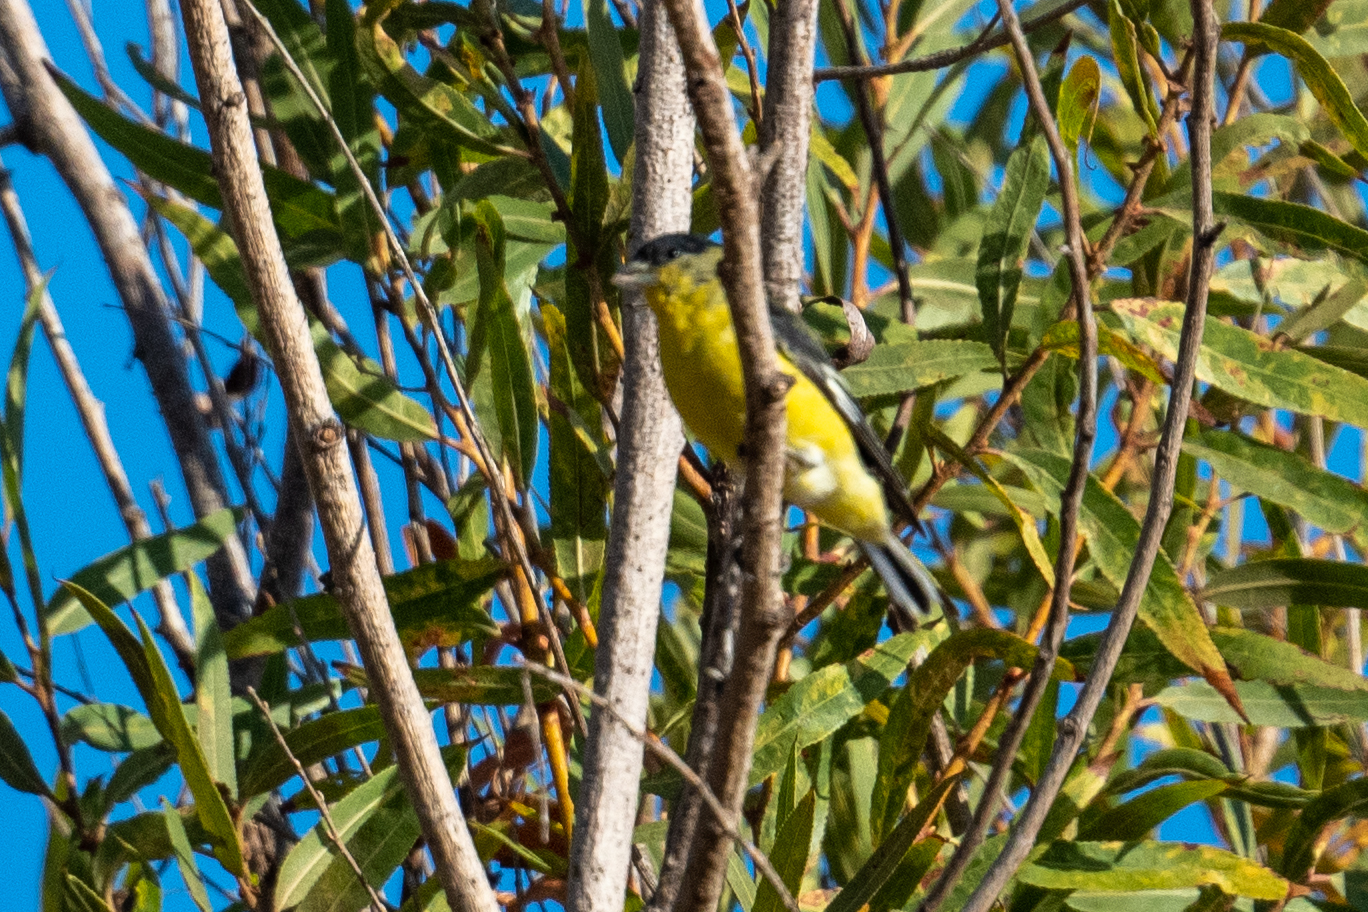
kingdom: Animalia
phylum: Chordata
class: Aves
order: Passeriformes
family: Fringillidae
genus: Spinus
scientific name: Spinus psaltria
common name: Lesser goldfinch
